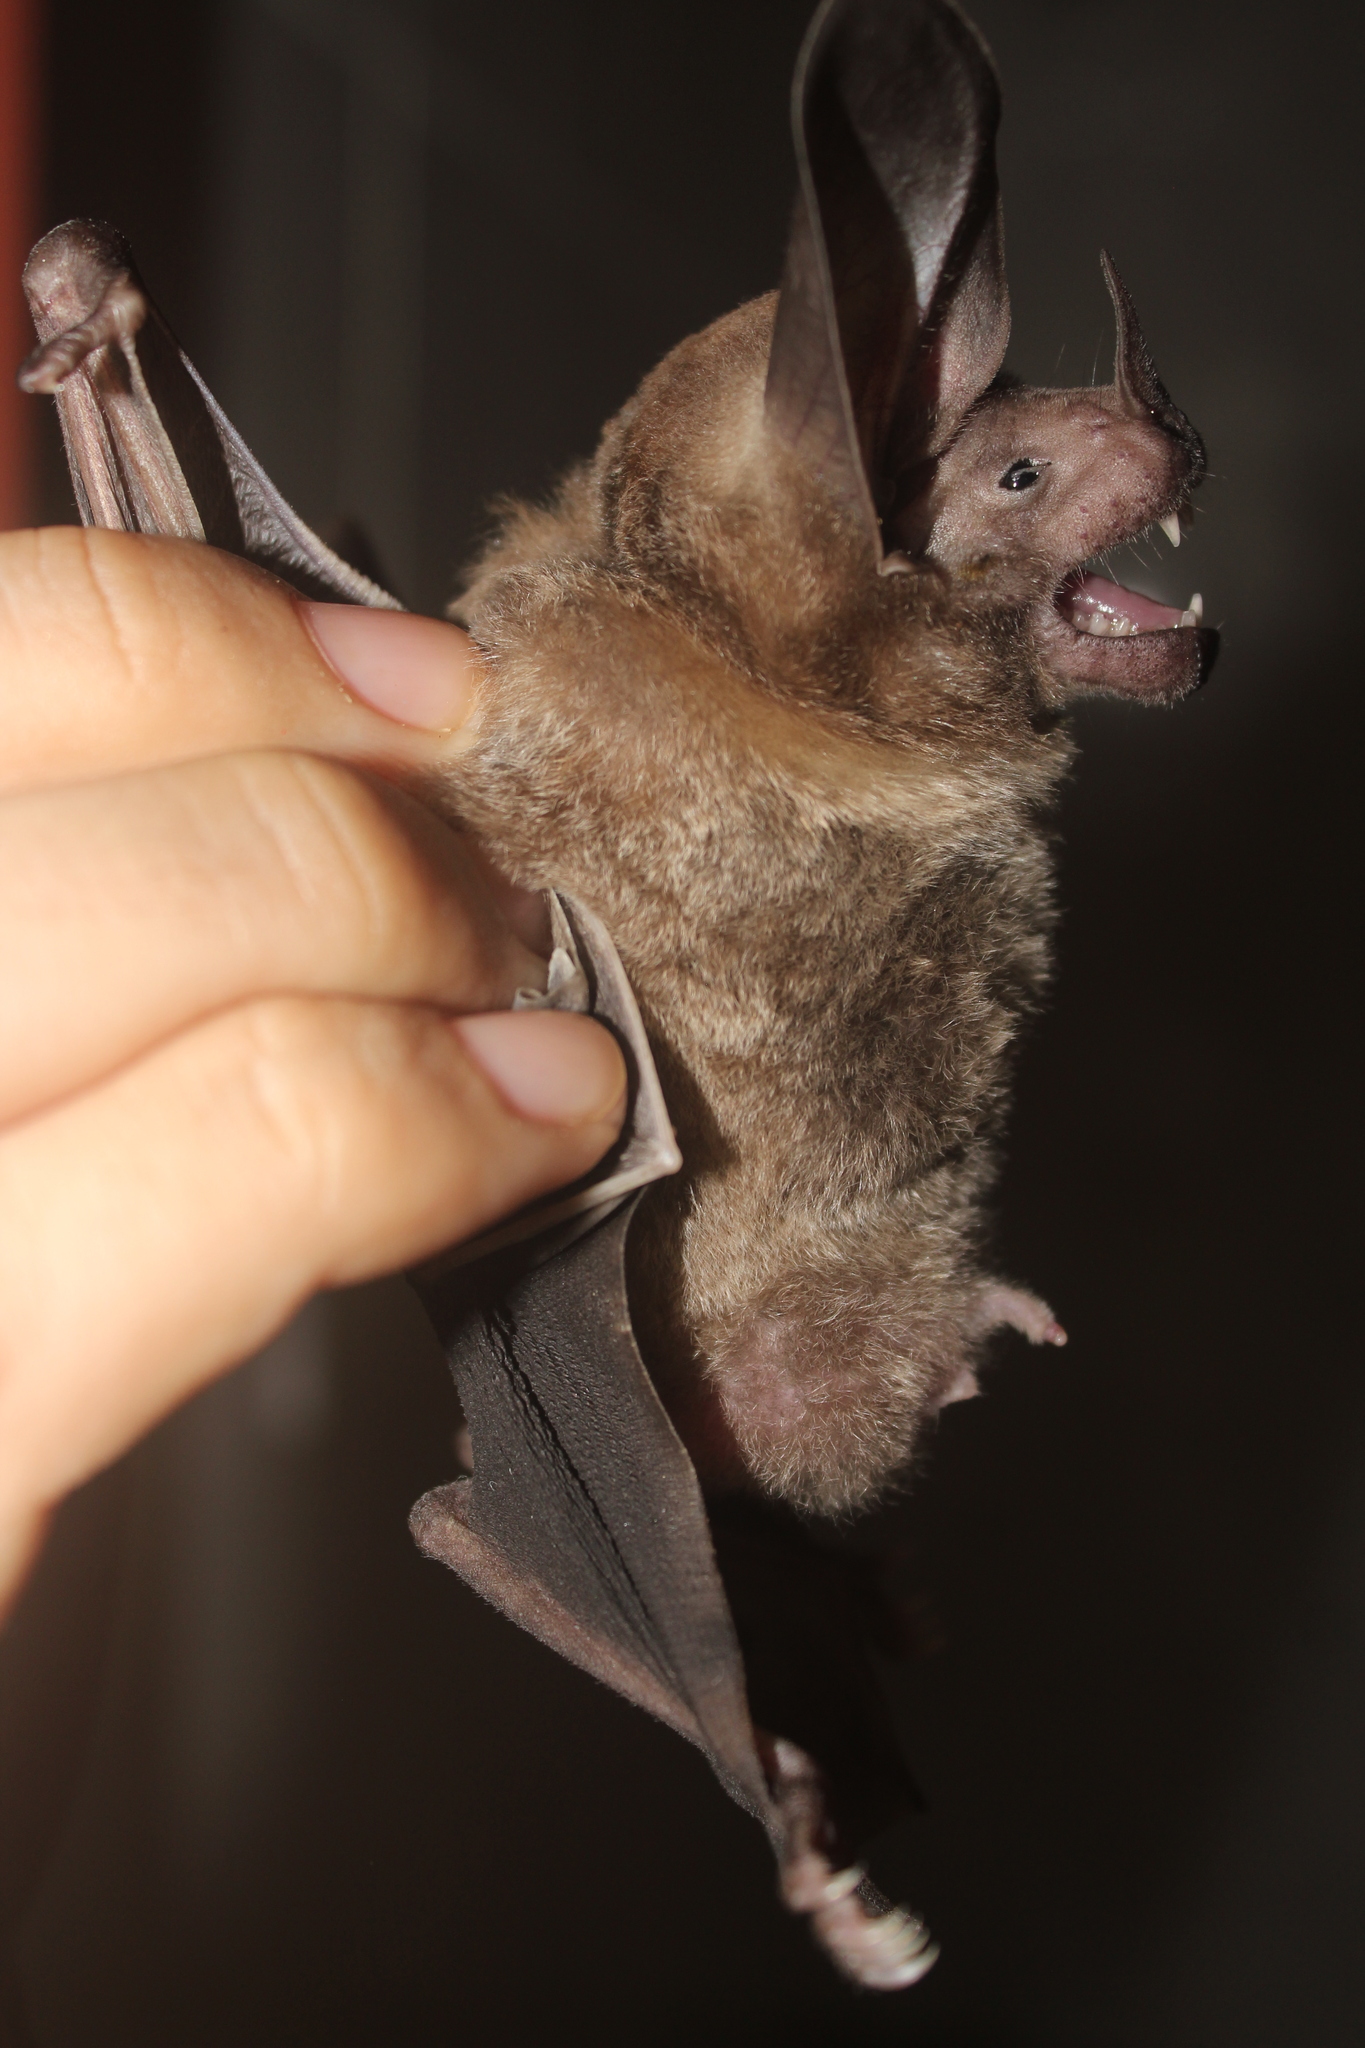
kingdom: Animalia
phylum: Chordata
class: Mammalia
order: Chiroptera
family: Phyllostomidae
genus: Lophostoma
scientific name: Lophostoma silvicola
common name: White-throated round-eared bat
